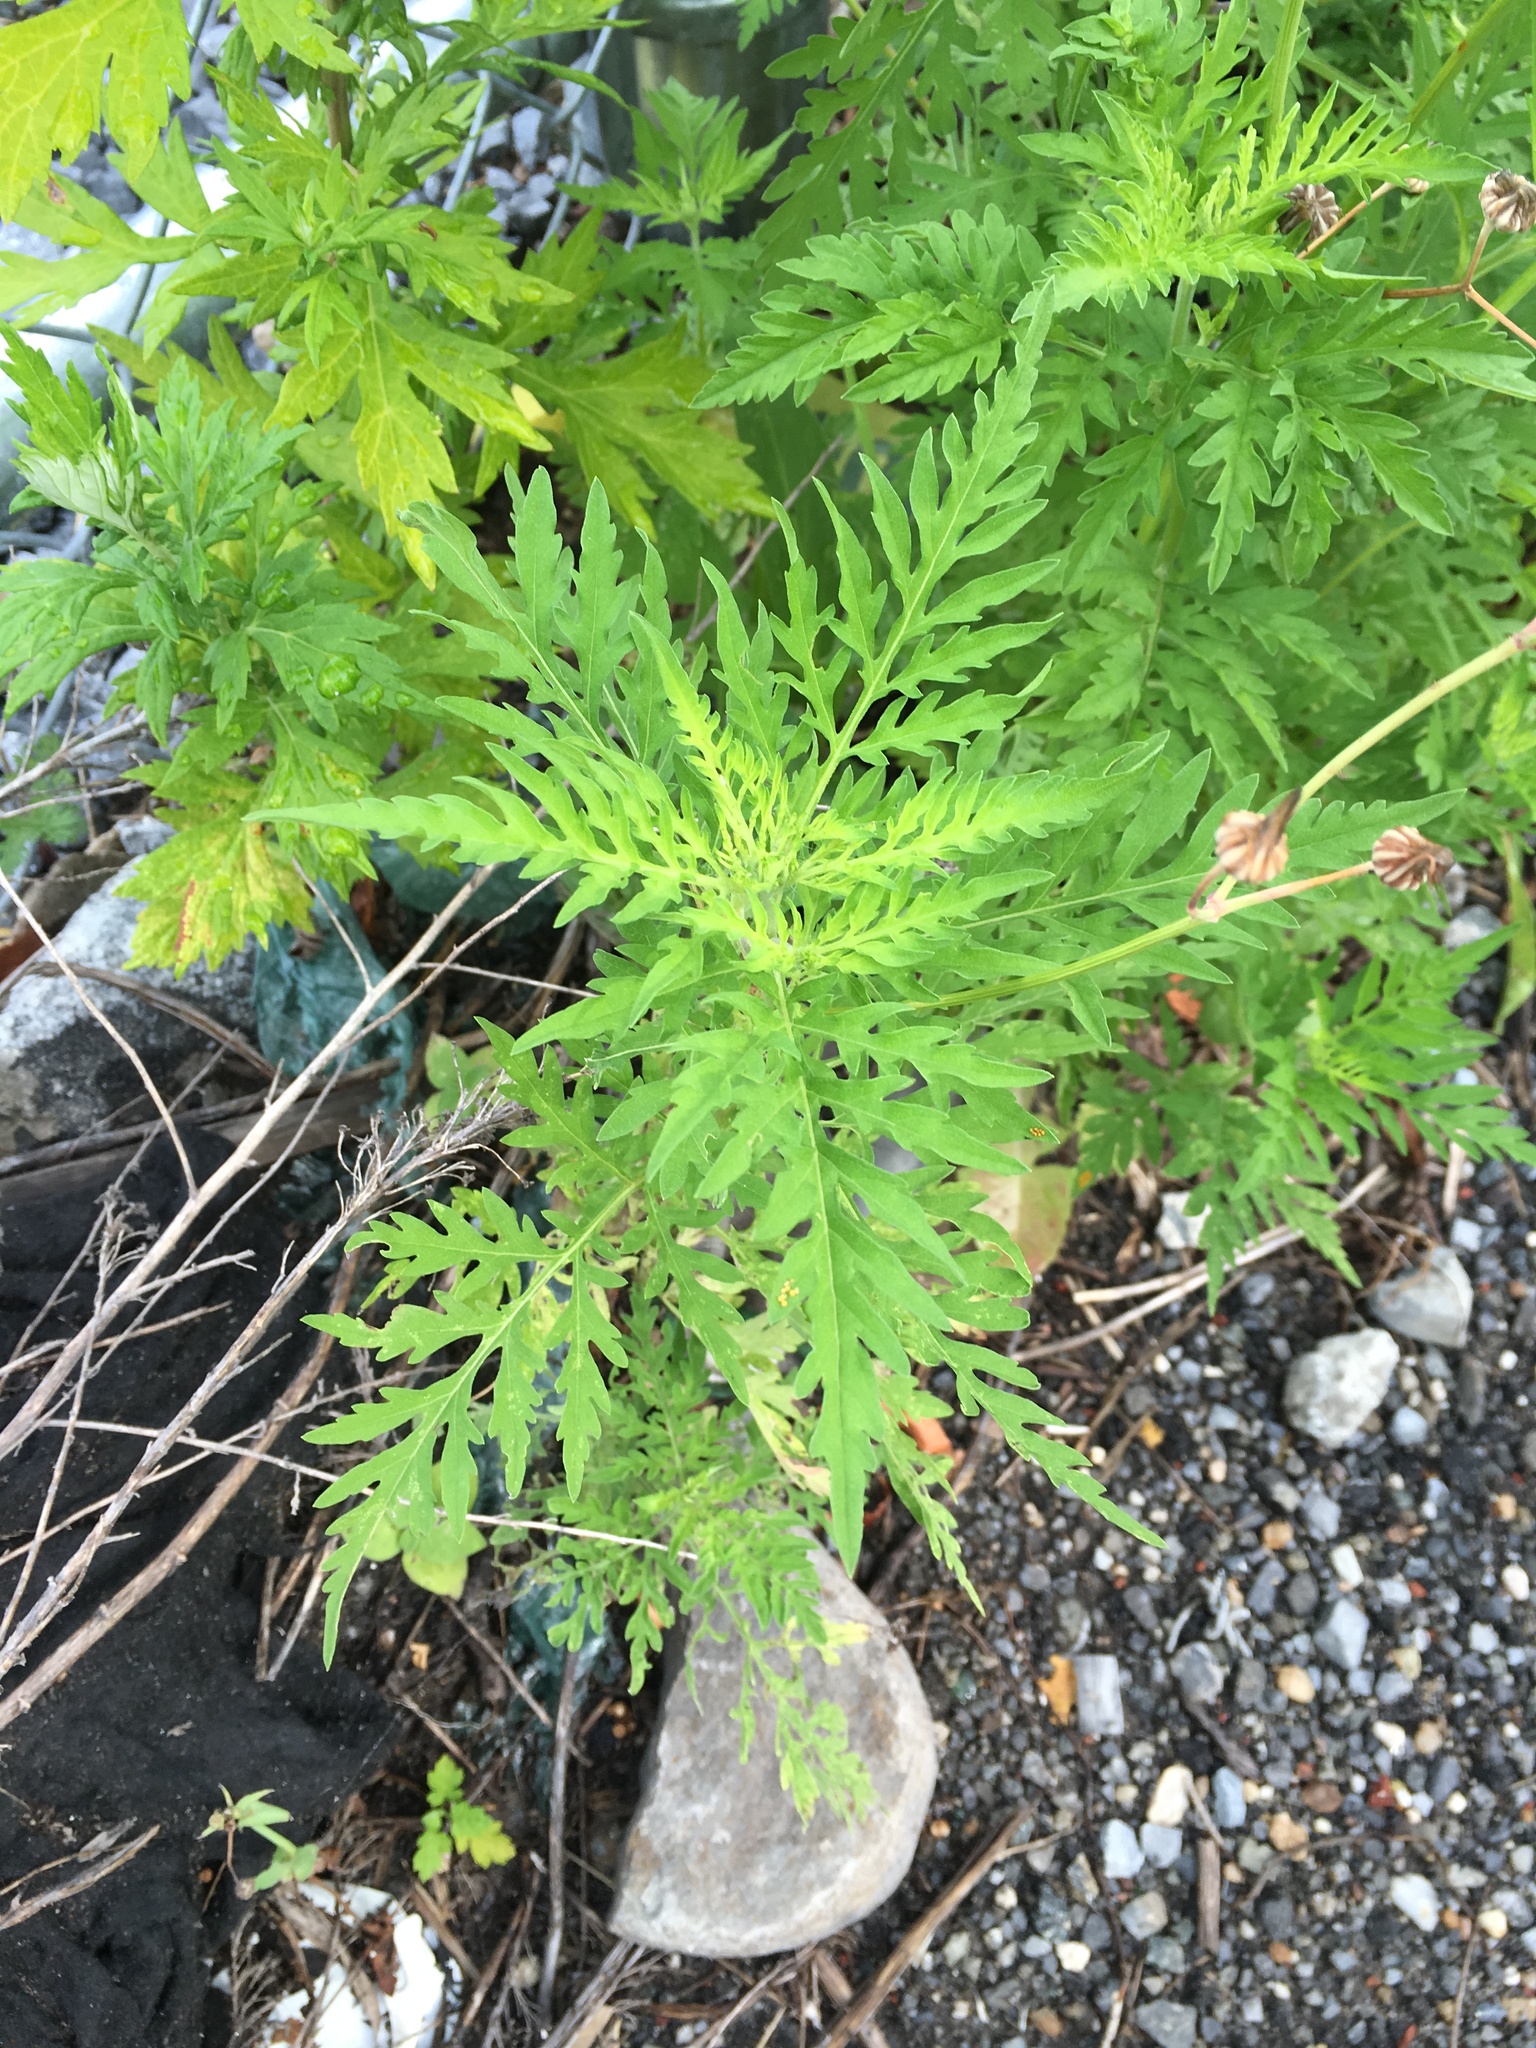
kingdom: Plantae
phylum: Tracheophyta
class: Magnoliopsida
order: Asterales
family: Asteraceae
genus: Ambrosia
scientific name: Ambrosia artemisiifolia
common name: Annual ragweed
